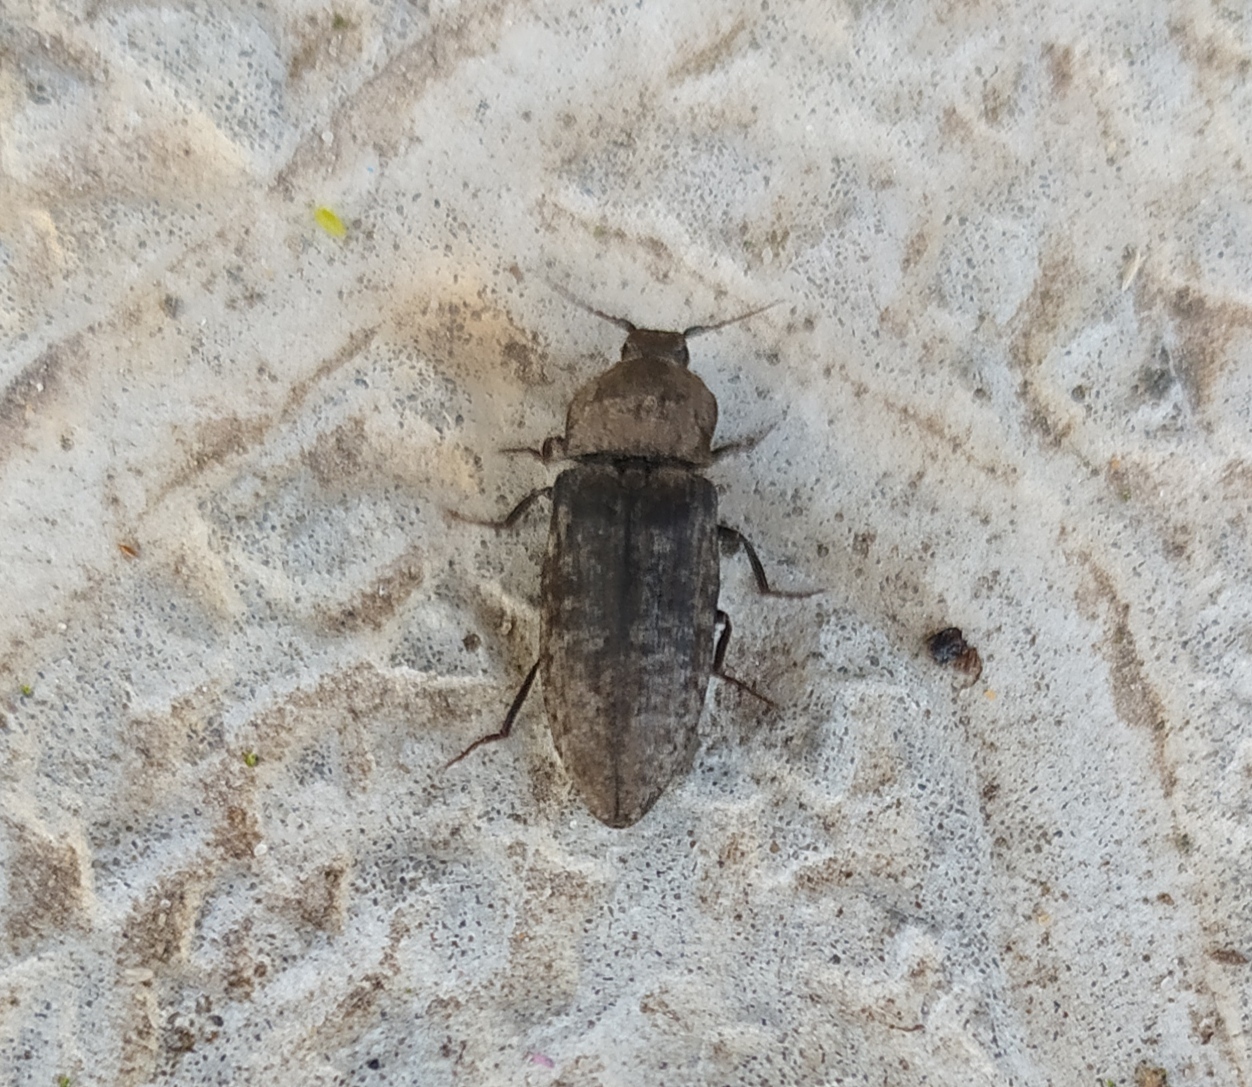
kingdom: Animalia
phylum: Arthropoda
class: Insecta
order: Coleoptera
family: Elateridae
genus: Agrypnus
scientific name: Agrypnus murinus
